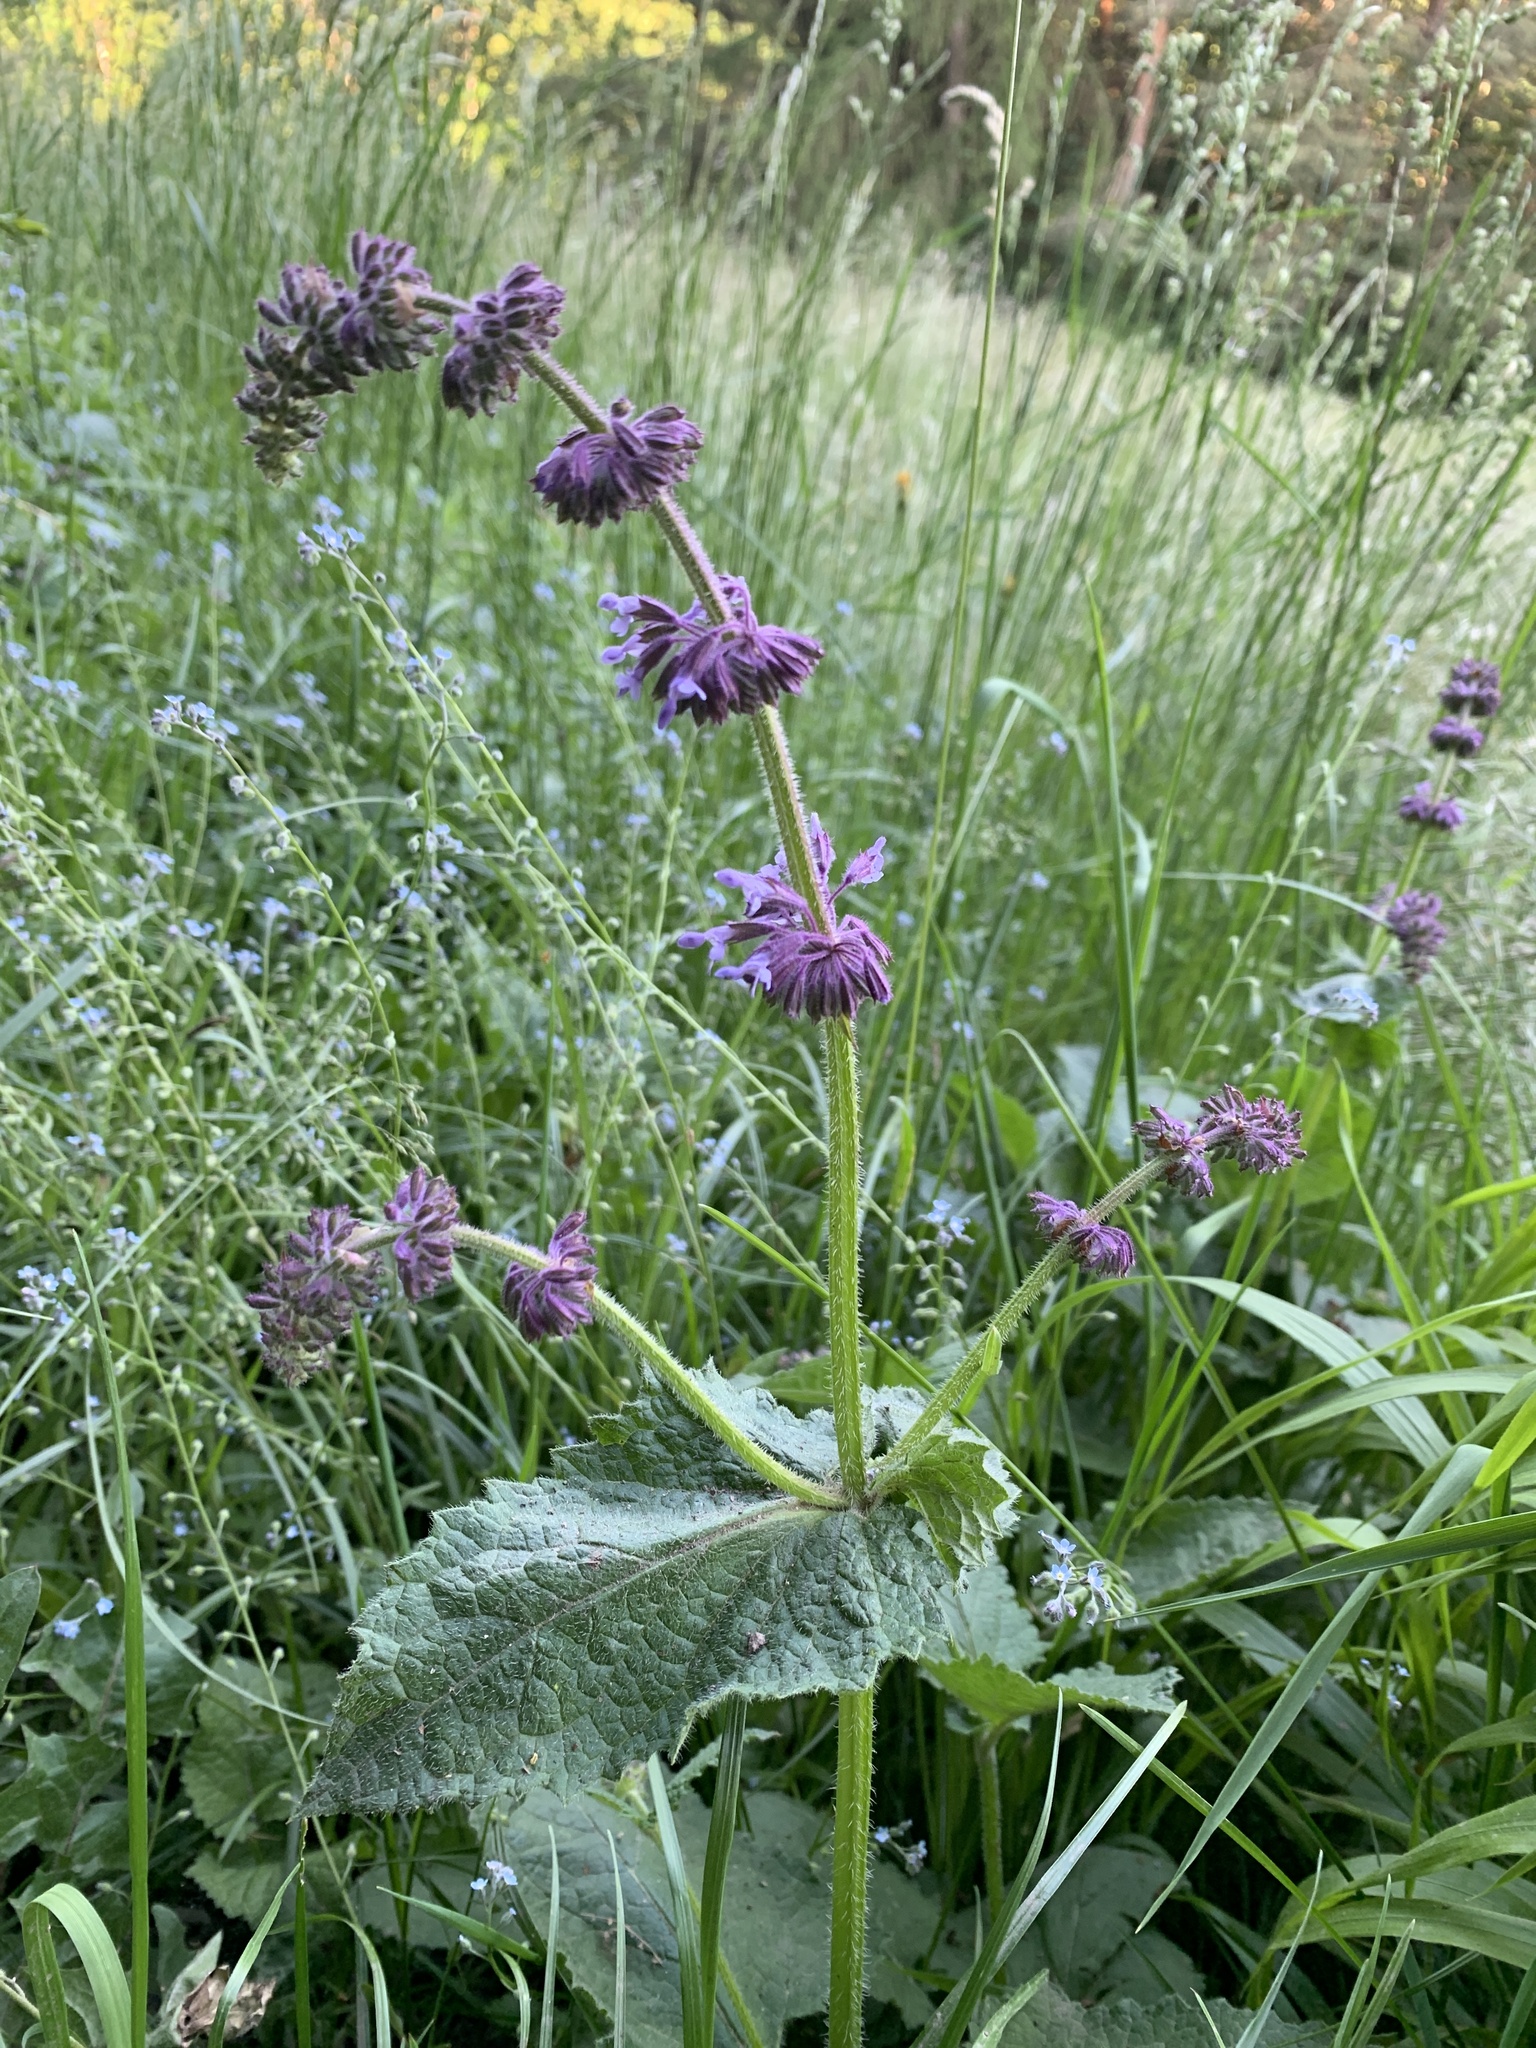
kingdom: Plantae
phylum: Tracheophyta
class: Magnoliopsida
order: Lamiales
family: Lamiaceae
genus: Salvia
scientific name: Salvia verticillata
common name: Whorled clary
